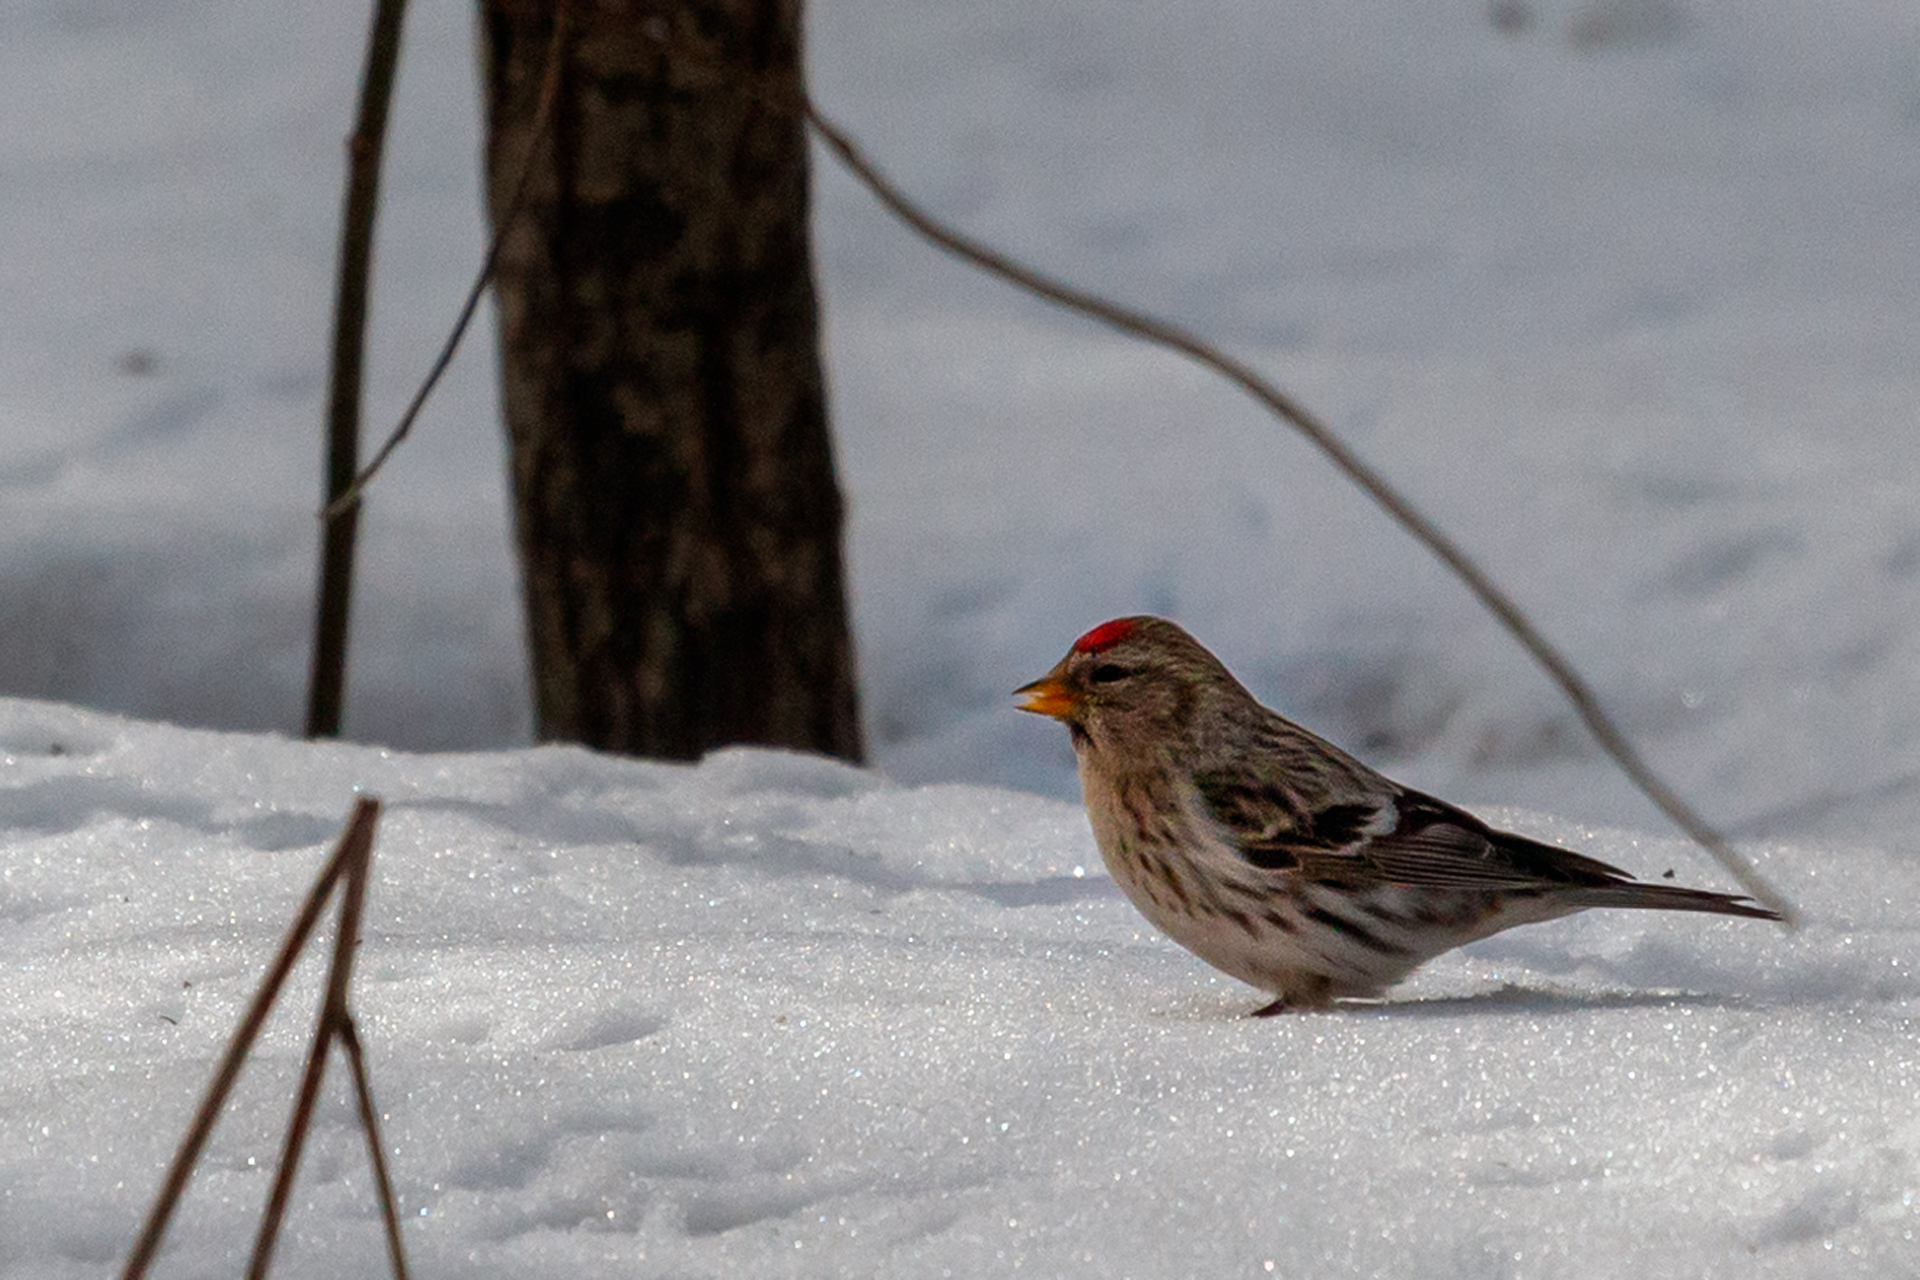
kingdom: Animalia
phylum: Chordata
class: Aves
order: Passeriformes
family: Fringillidae
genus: Acanthis
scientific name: Acanthis flammea
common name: Common redpoll
